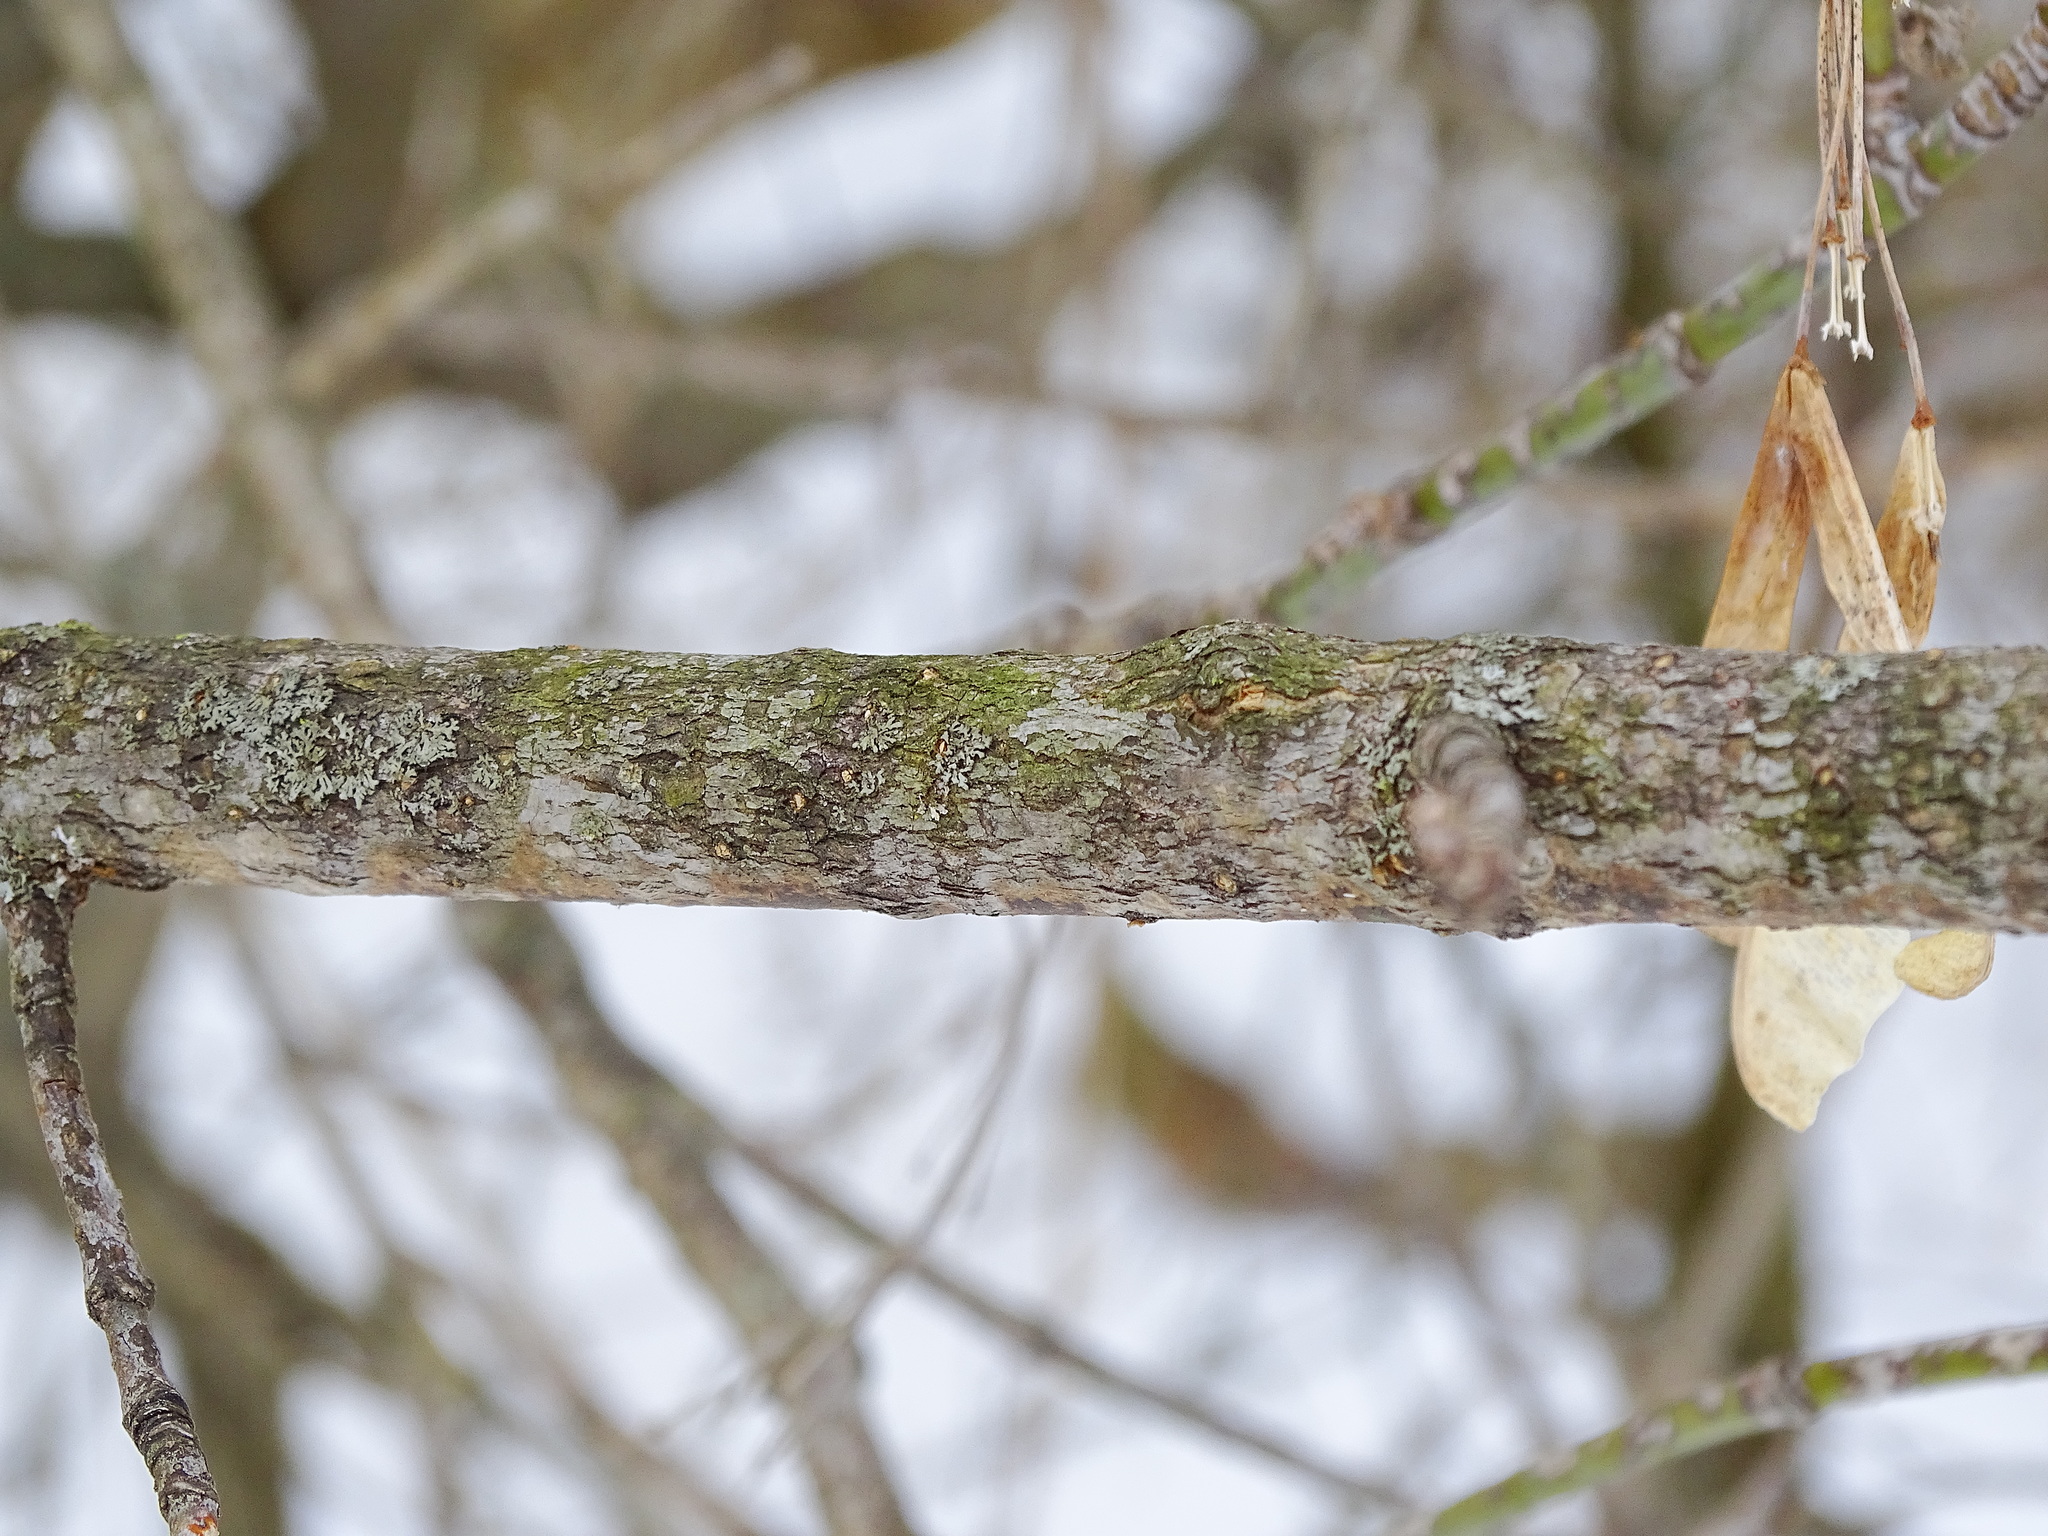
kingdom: Plantae
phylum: Tracheophyta
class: Magnoliopsida
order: Sapindales
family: Sapindaceae
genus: Acer
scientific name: Acer negundo
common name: Ashleaf maple
